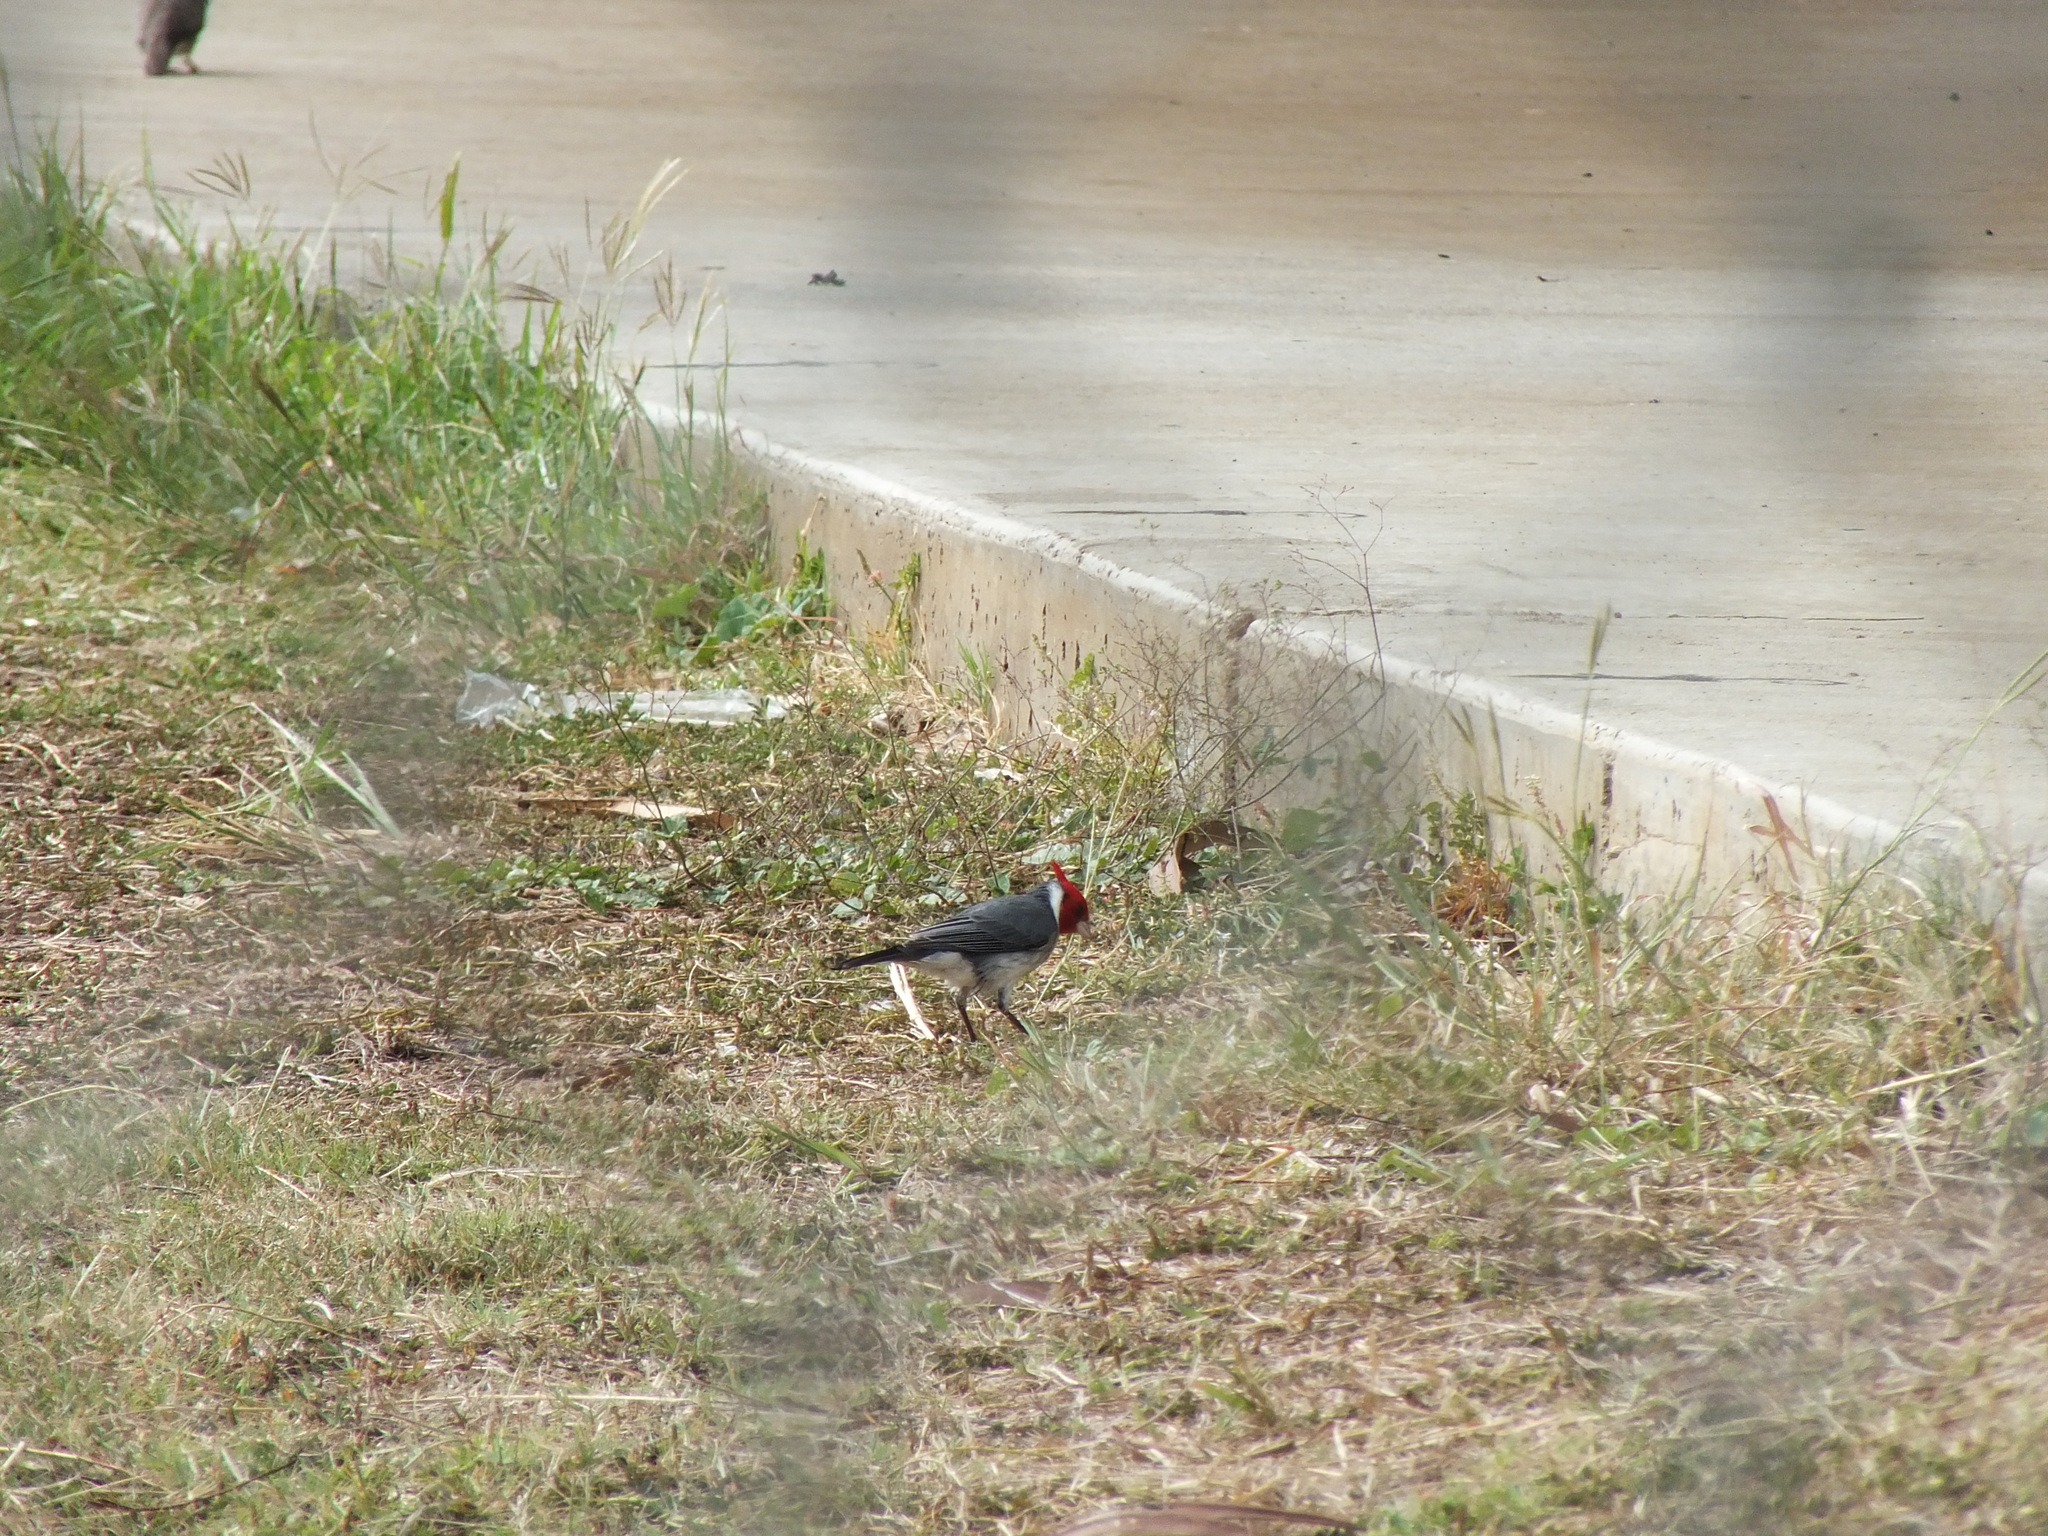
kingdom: Animalia
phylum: Chordata
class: Aves
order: Passeriformes
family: Thraupidae
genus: Paroaria
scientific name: Paroaria coronata
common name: Red-crested cardinal
